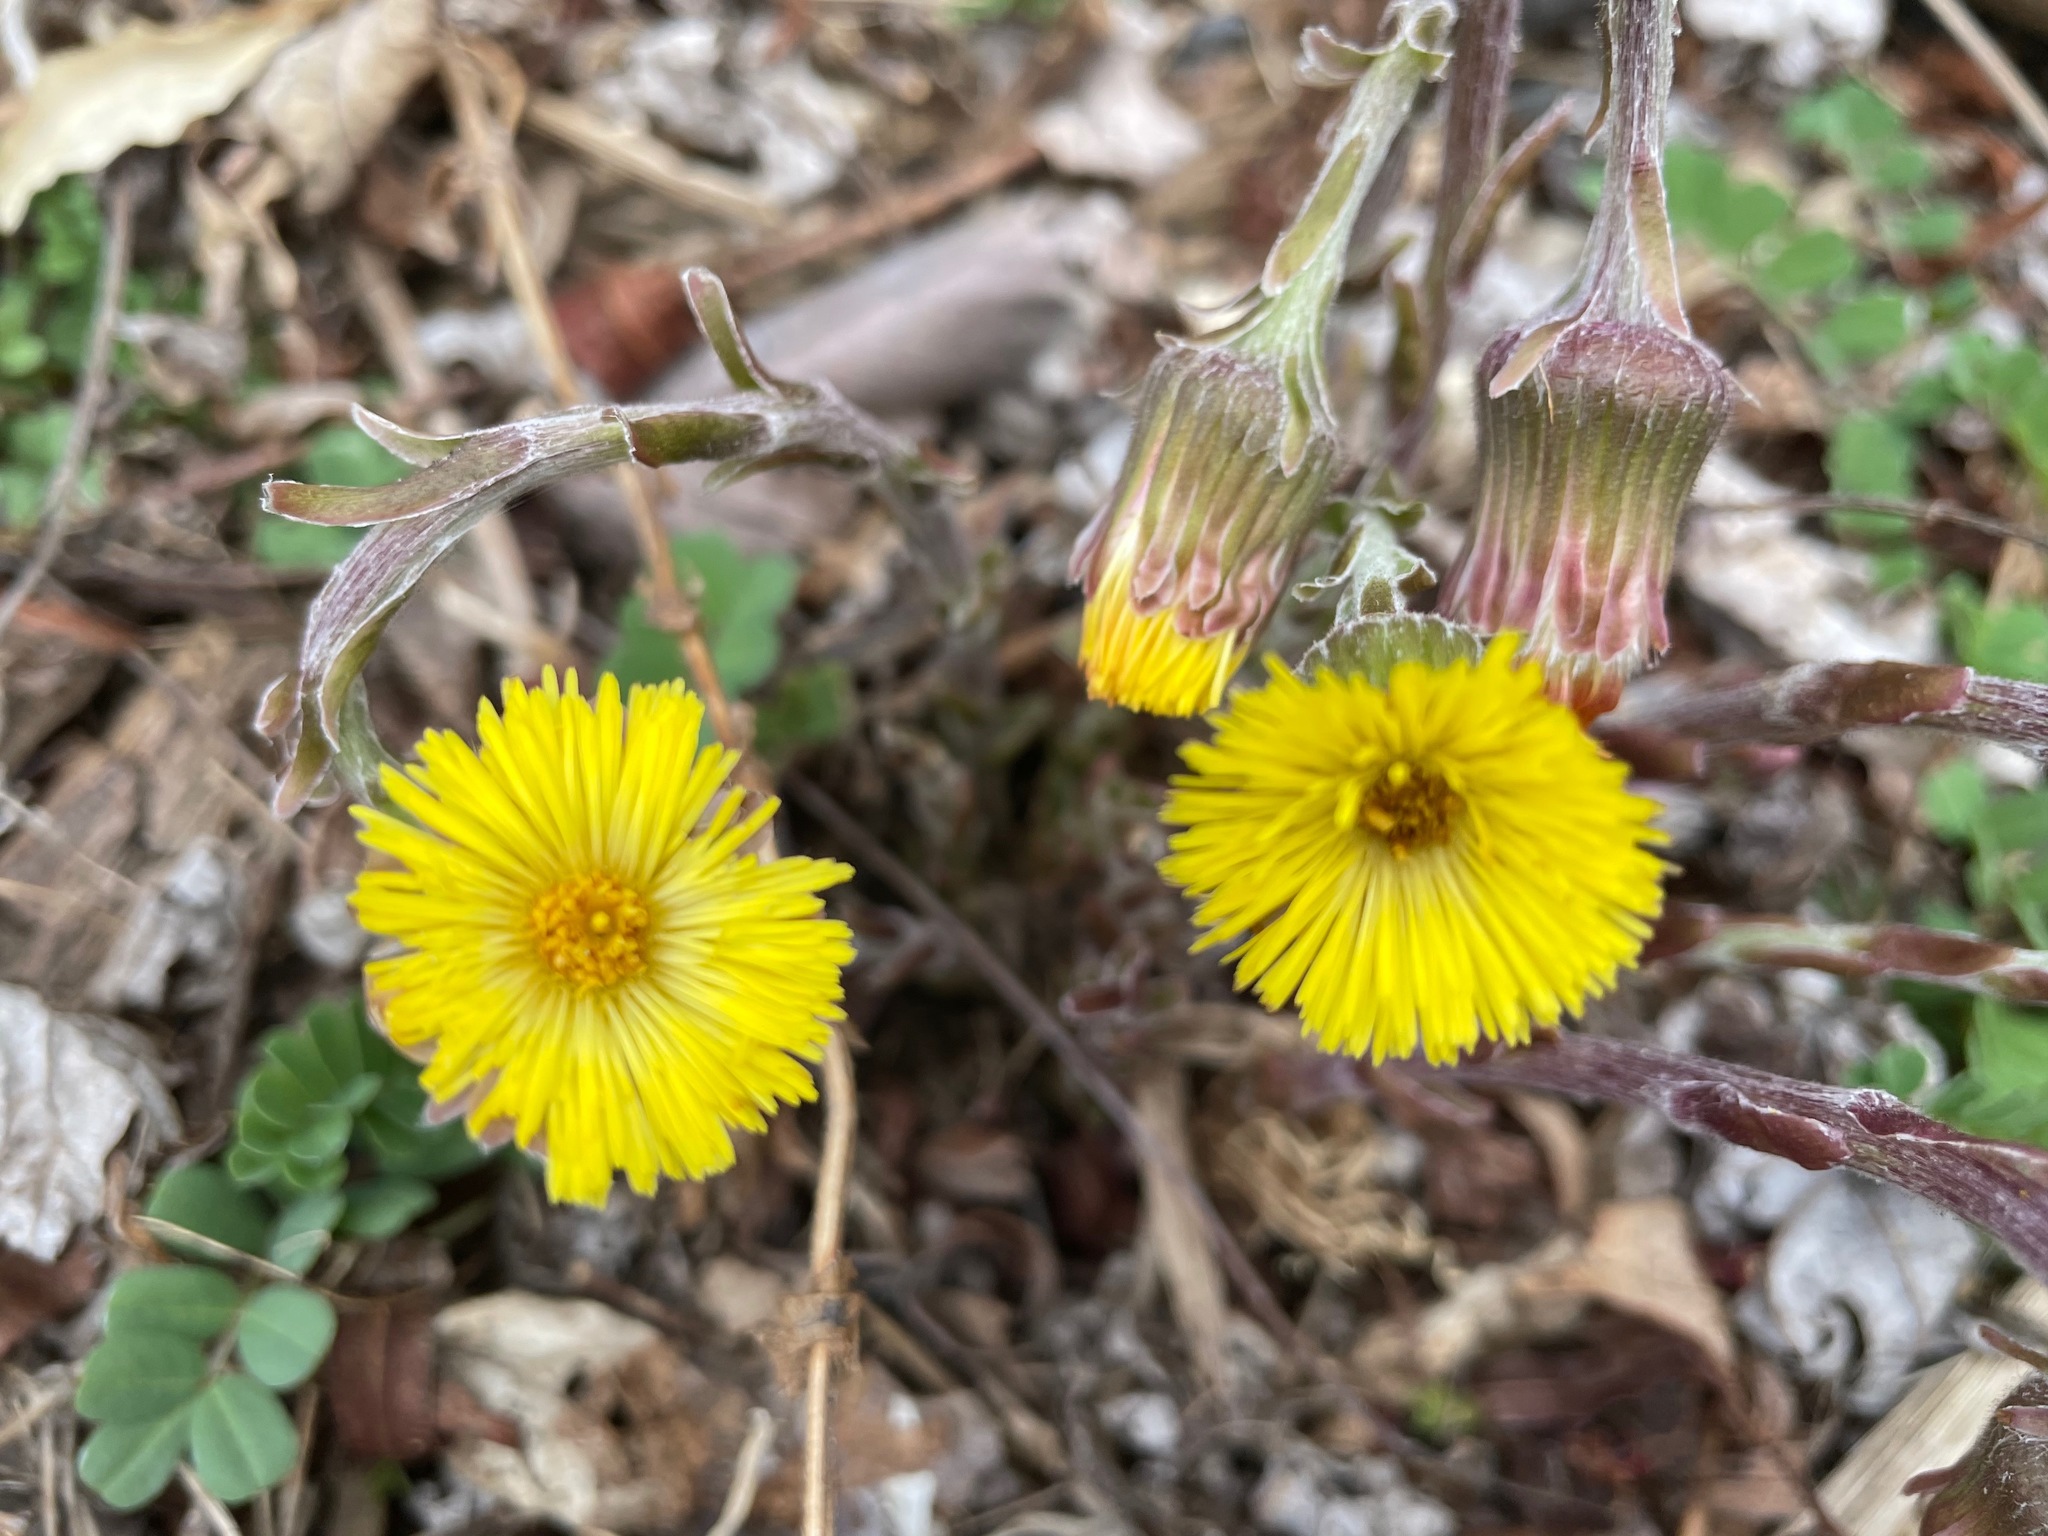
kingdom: Plantae
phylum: Tracheophyta
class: Magnoliopsida
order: Asterales
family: Asteraceae
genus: Tussilago
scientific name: Tussilago farfara
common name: Coltsfoot
